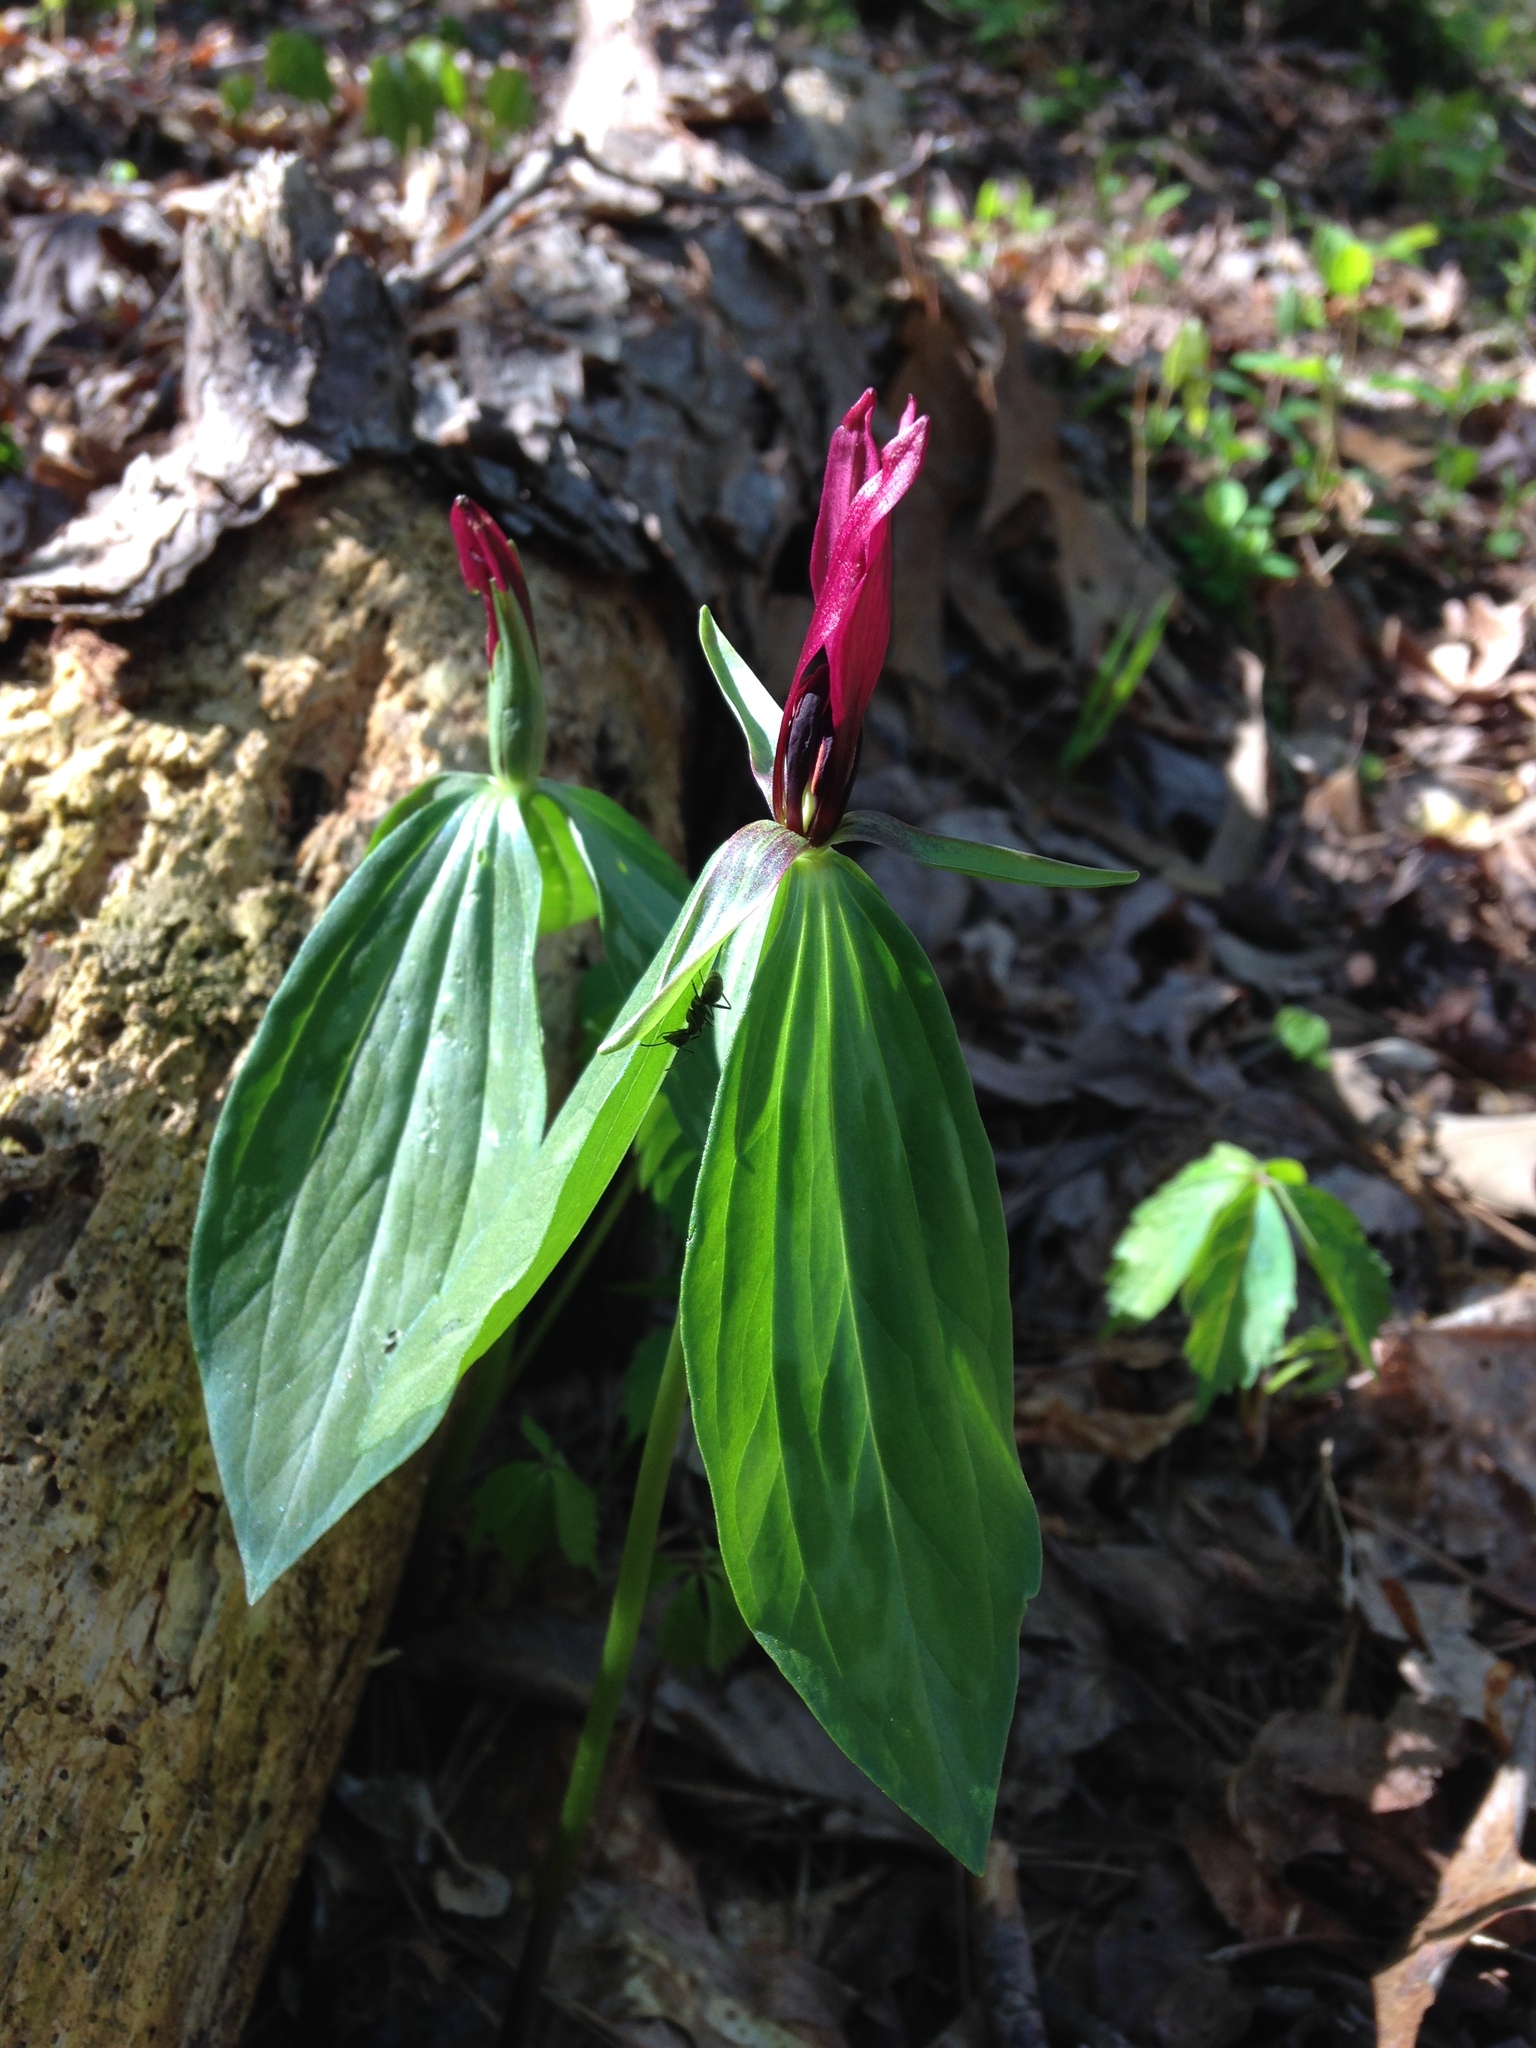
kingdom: Plantae
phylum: Tracheophyta
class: Liliopsida
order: Liliales
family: Melanthiaceae
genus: Trillium
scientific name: Trillium lancifolium
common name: Lance-leaved trillium
